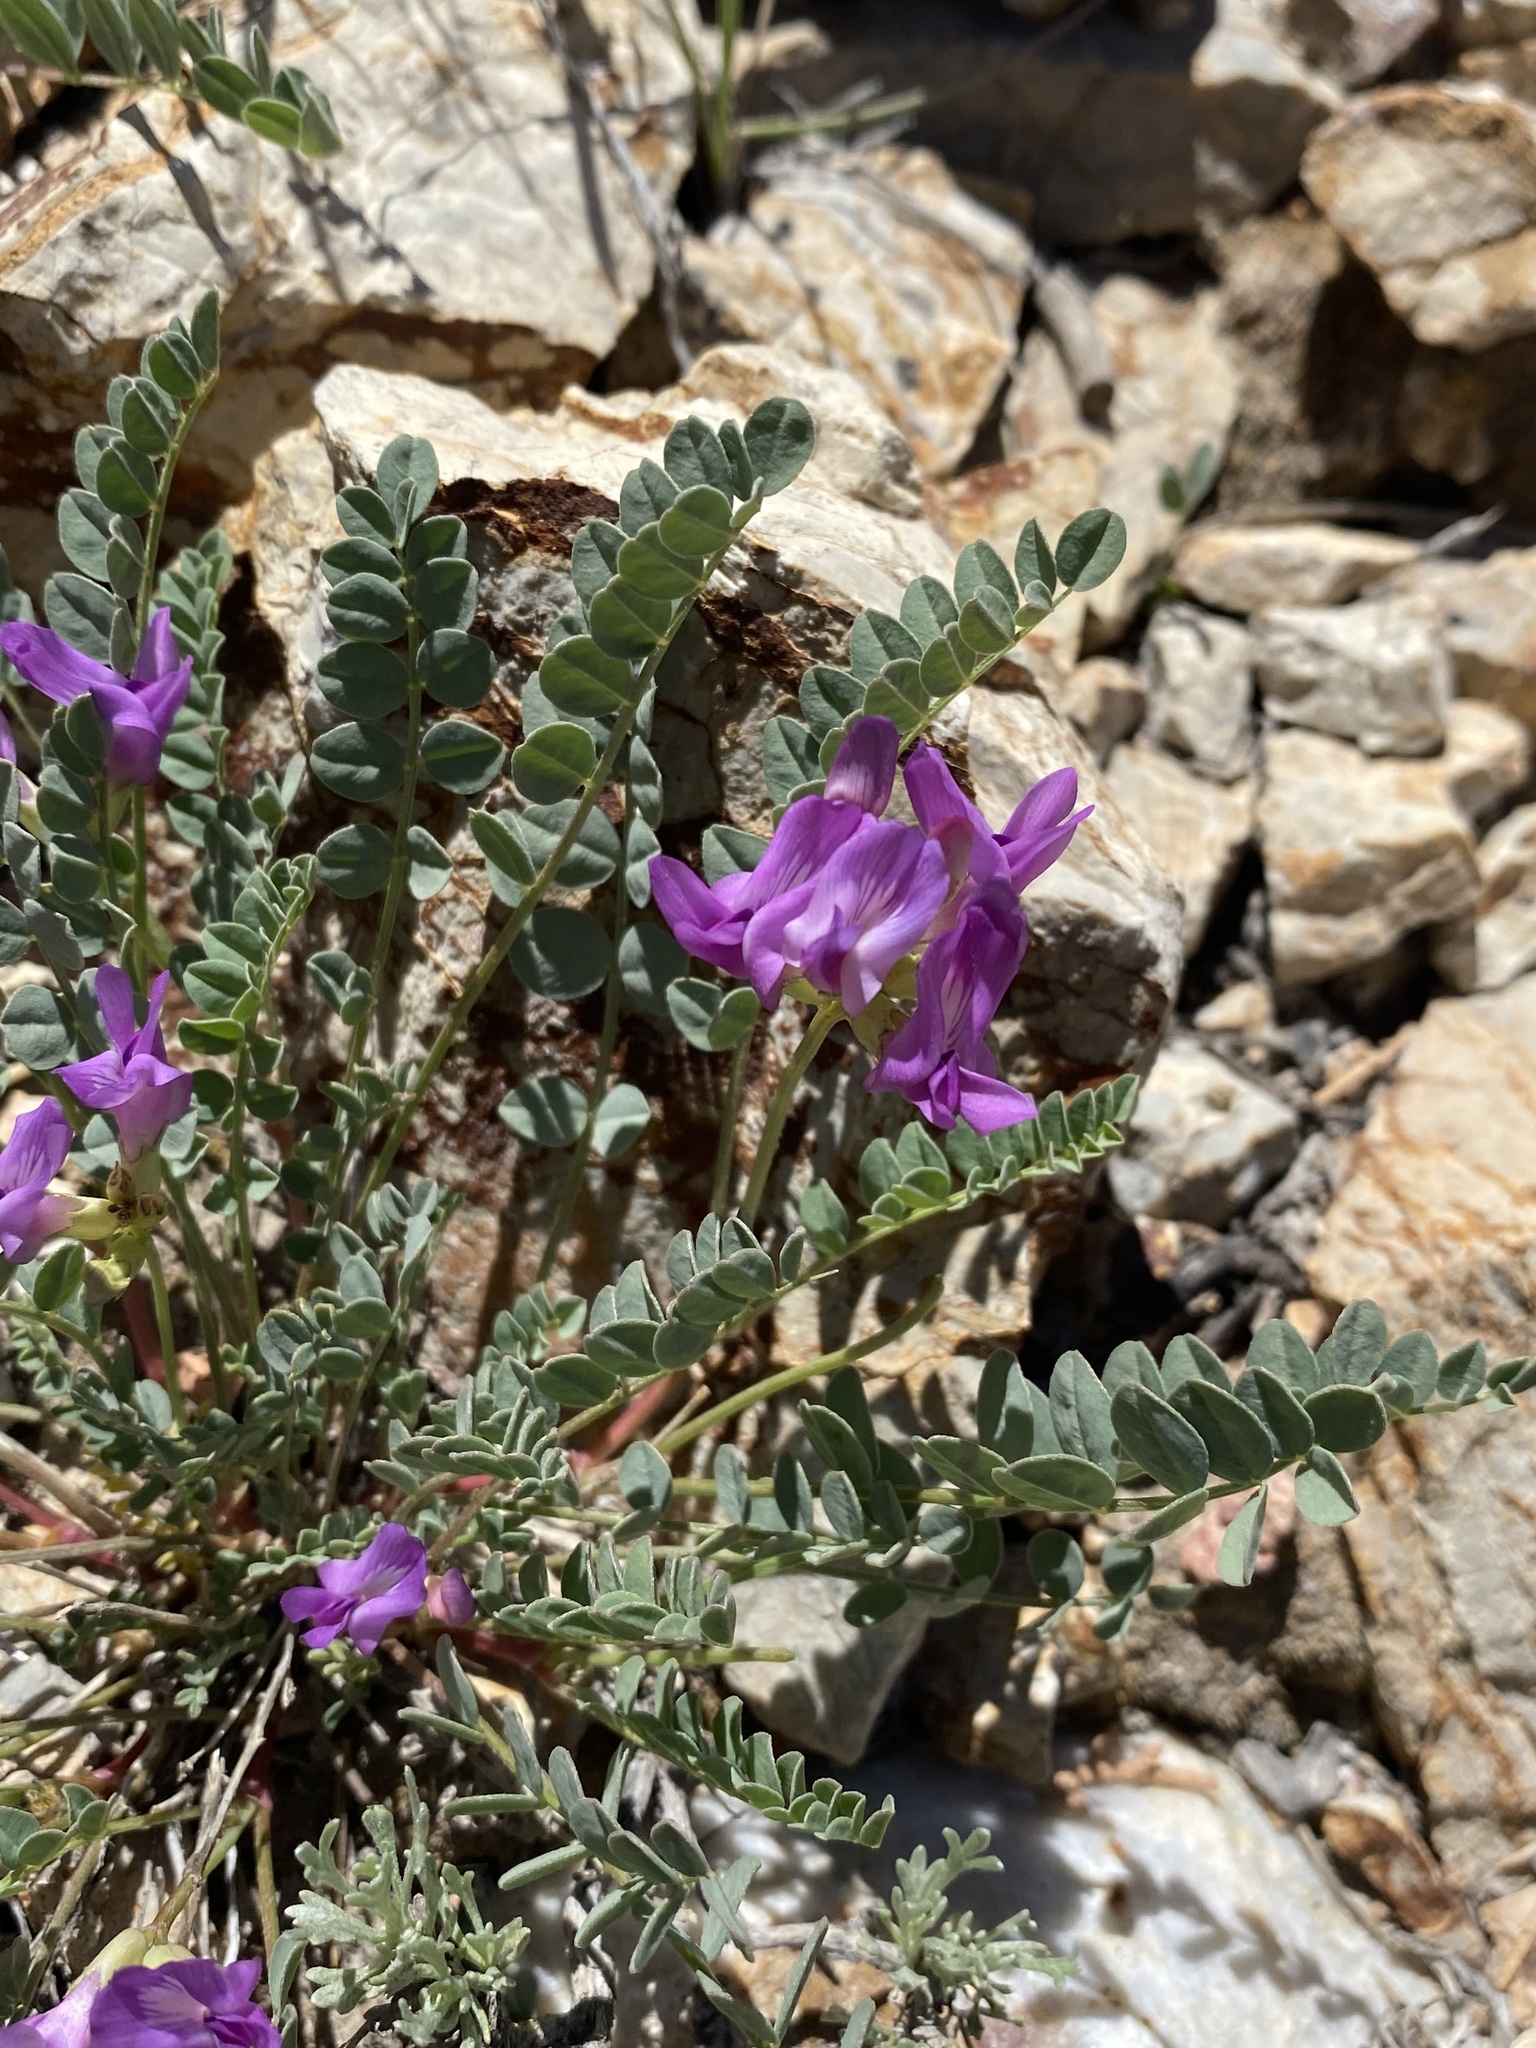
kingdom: Plantae
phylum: Tracheophyta
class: Magnoliopsida
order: Fabales
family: Fabaceae
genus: Astragalus
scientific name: Astragalus oophorus
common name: Egg milkvetch
